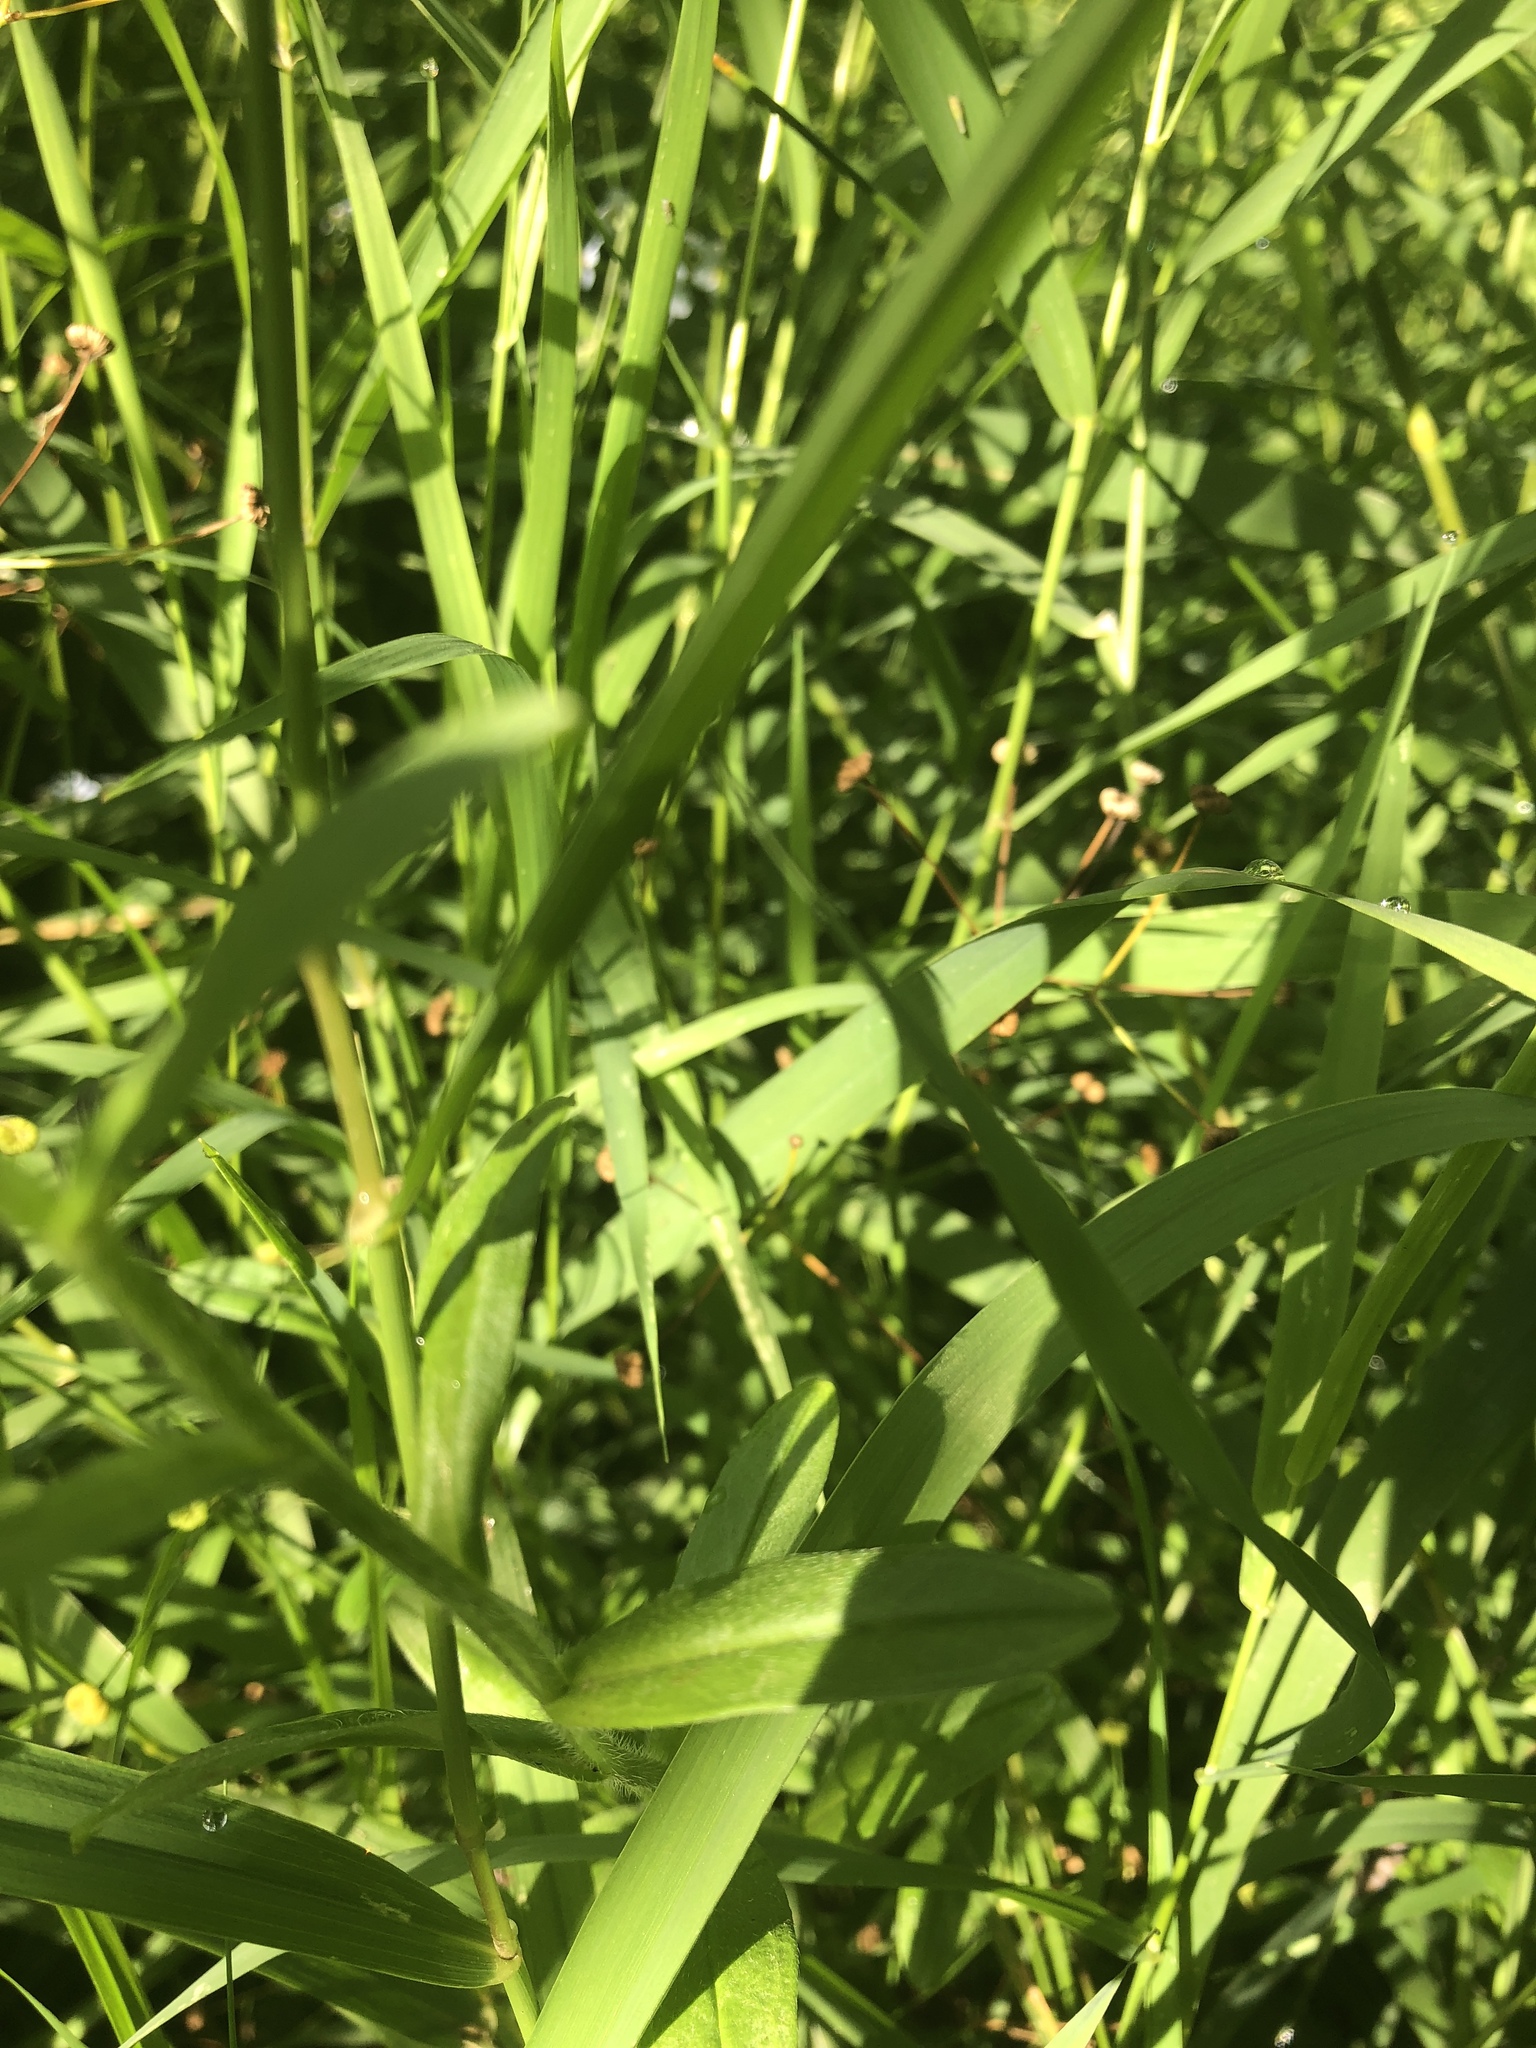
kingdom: Plantae
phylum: Tracheophyta
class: Magnoliopsida
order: Boraginales
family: Boraginaceae
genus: Myosotis
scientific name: Myosotis scorpioides
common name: Water forget-me-not
